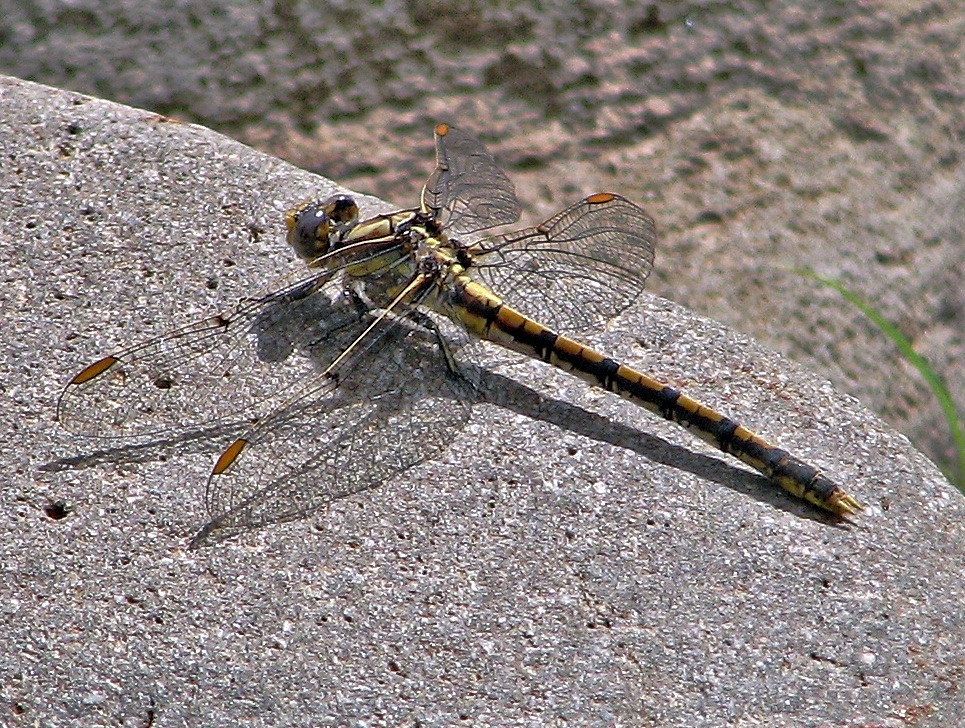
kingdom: Animalia
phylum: Arthropoda
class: Insecta
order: Odonata
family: Gomphidae
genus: Progomphus
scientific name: Progomphus joergenseni
